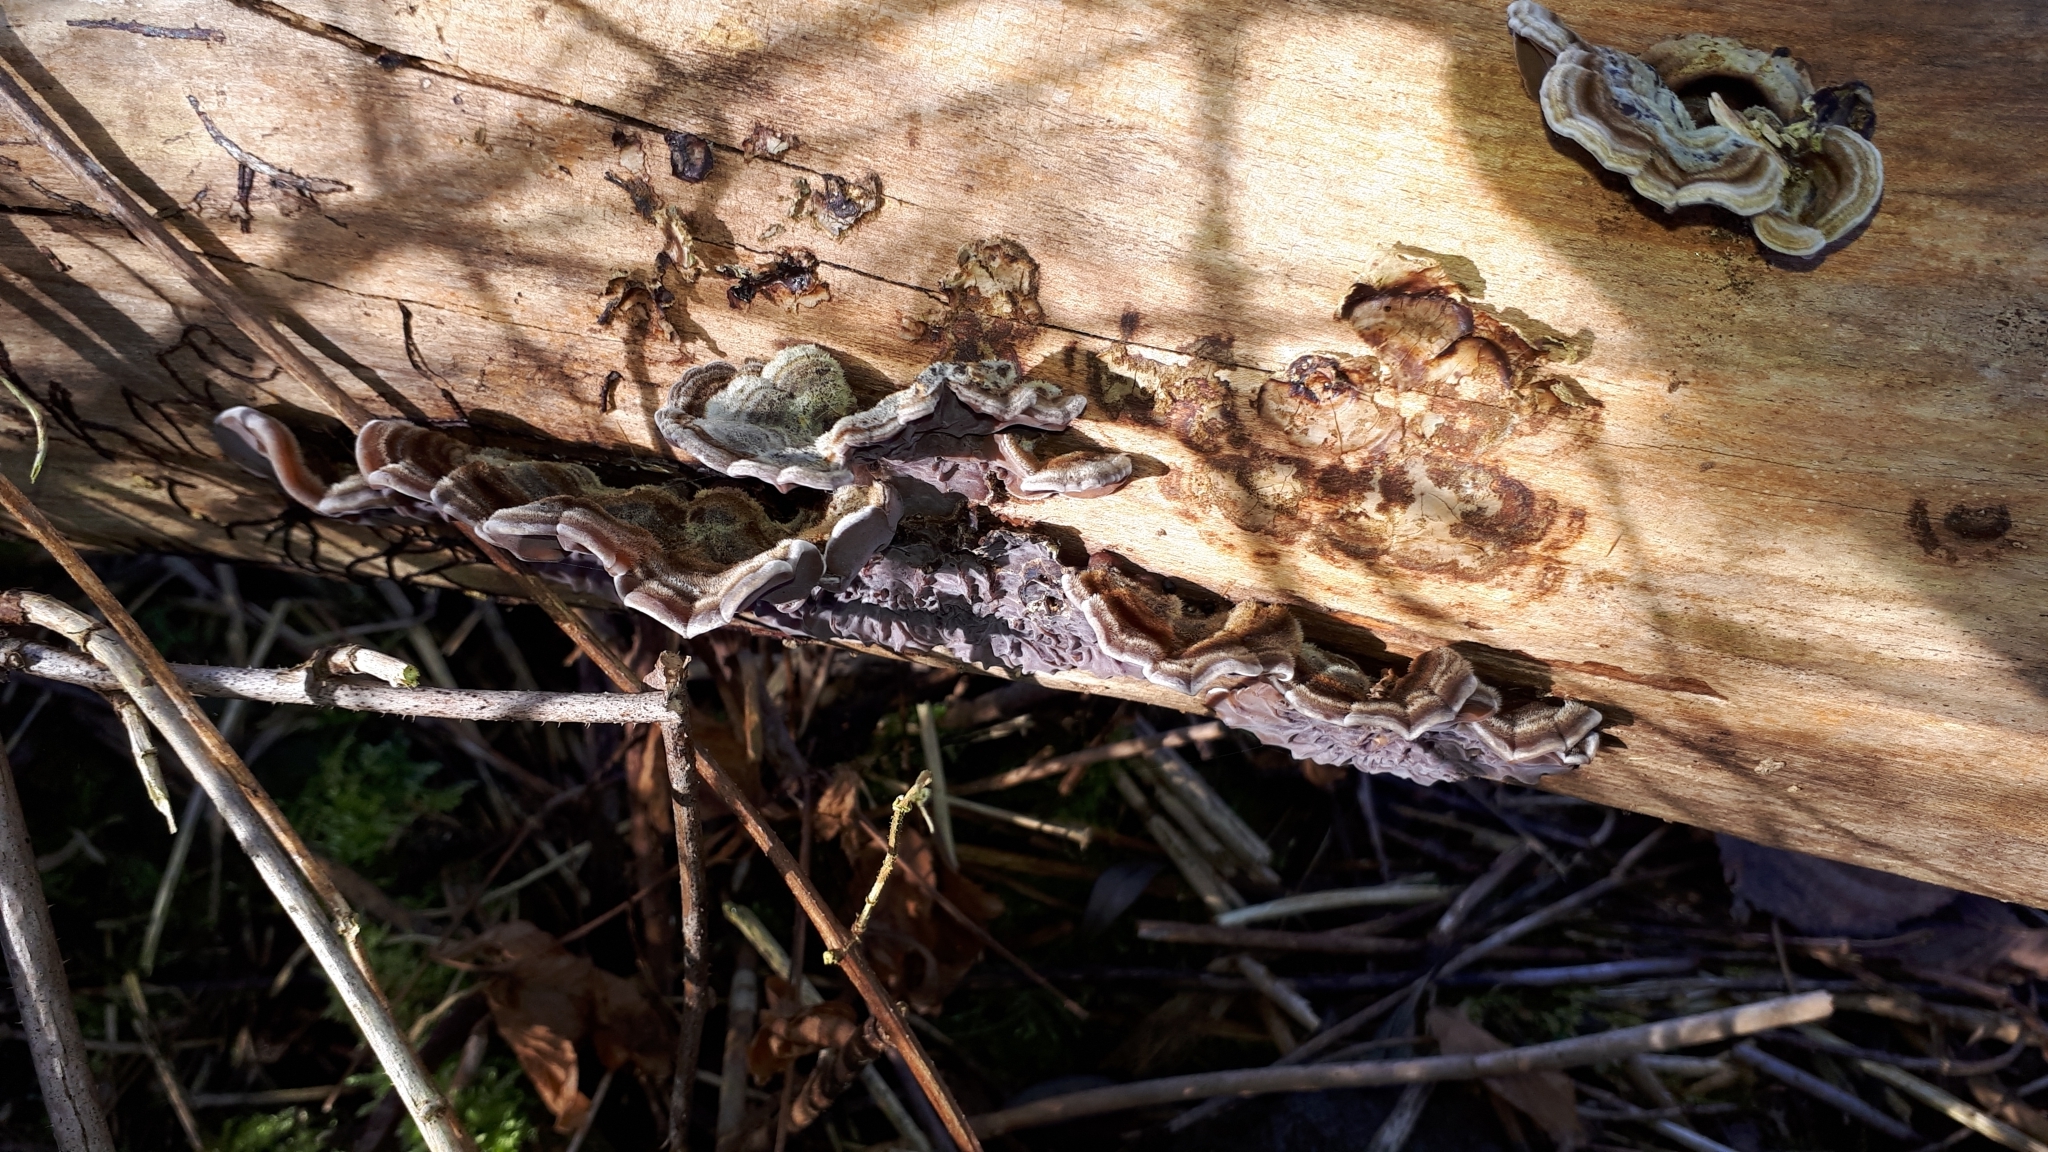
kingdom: Fungi
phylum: Basidiomycota
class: Agaricomycetes
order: Auriculariales
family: Auriculariaceae
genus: Auricularia
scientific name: Auricularia mesenterica
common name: Tripe fungus
